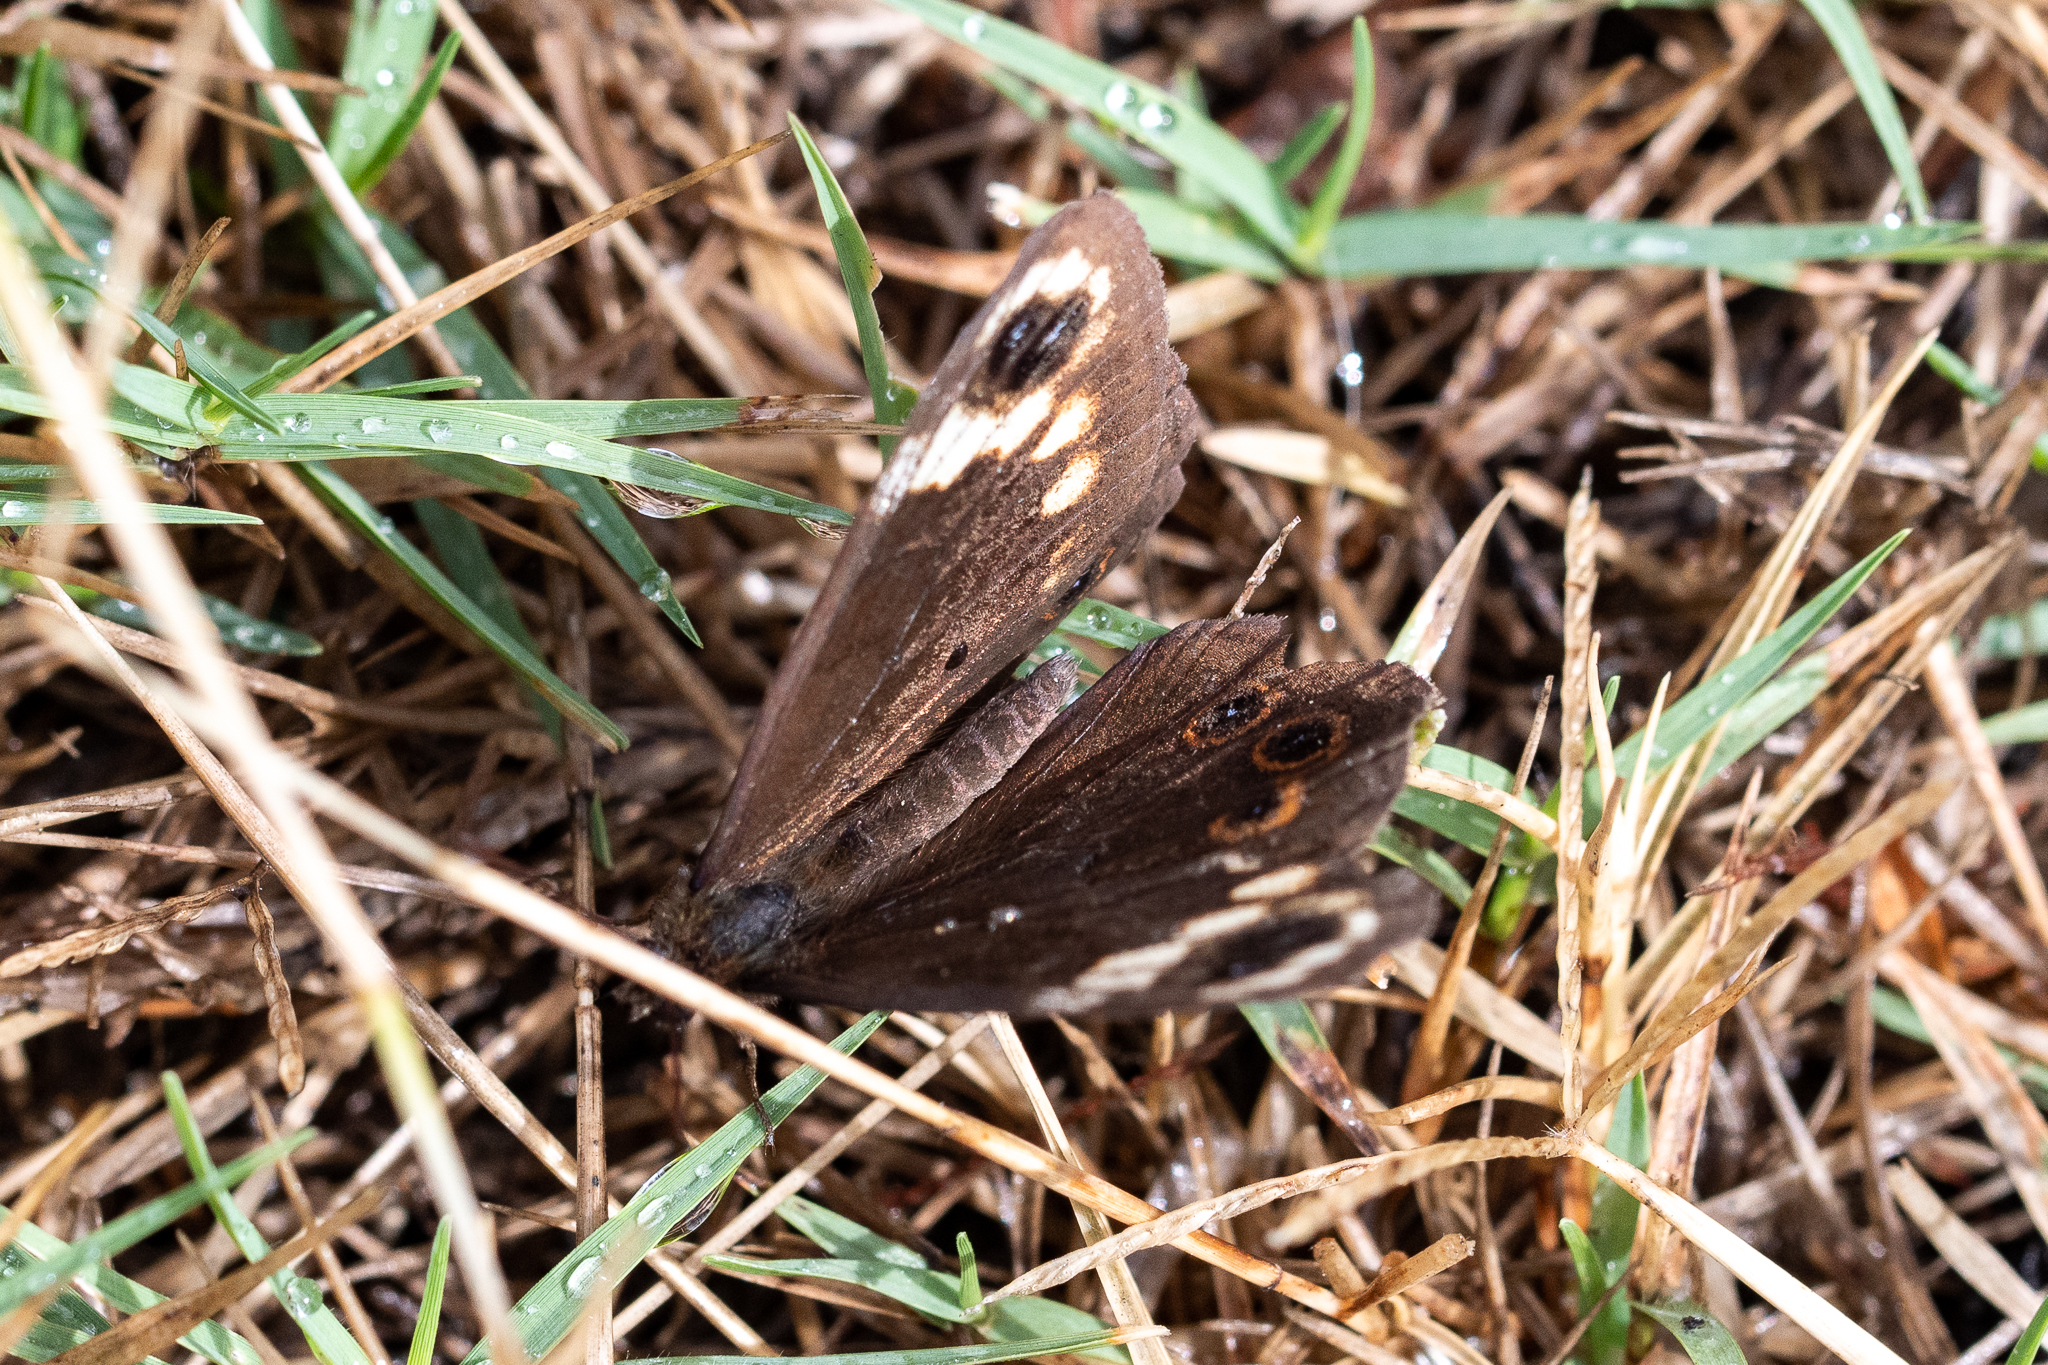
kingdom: Animalia
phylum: Arthropoda
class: Insecta
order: Lepidoptera
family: Nymphalidae
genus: Dira
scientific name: Dira clytus
